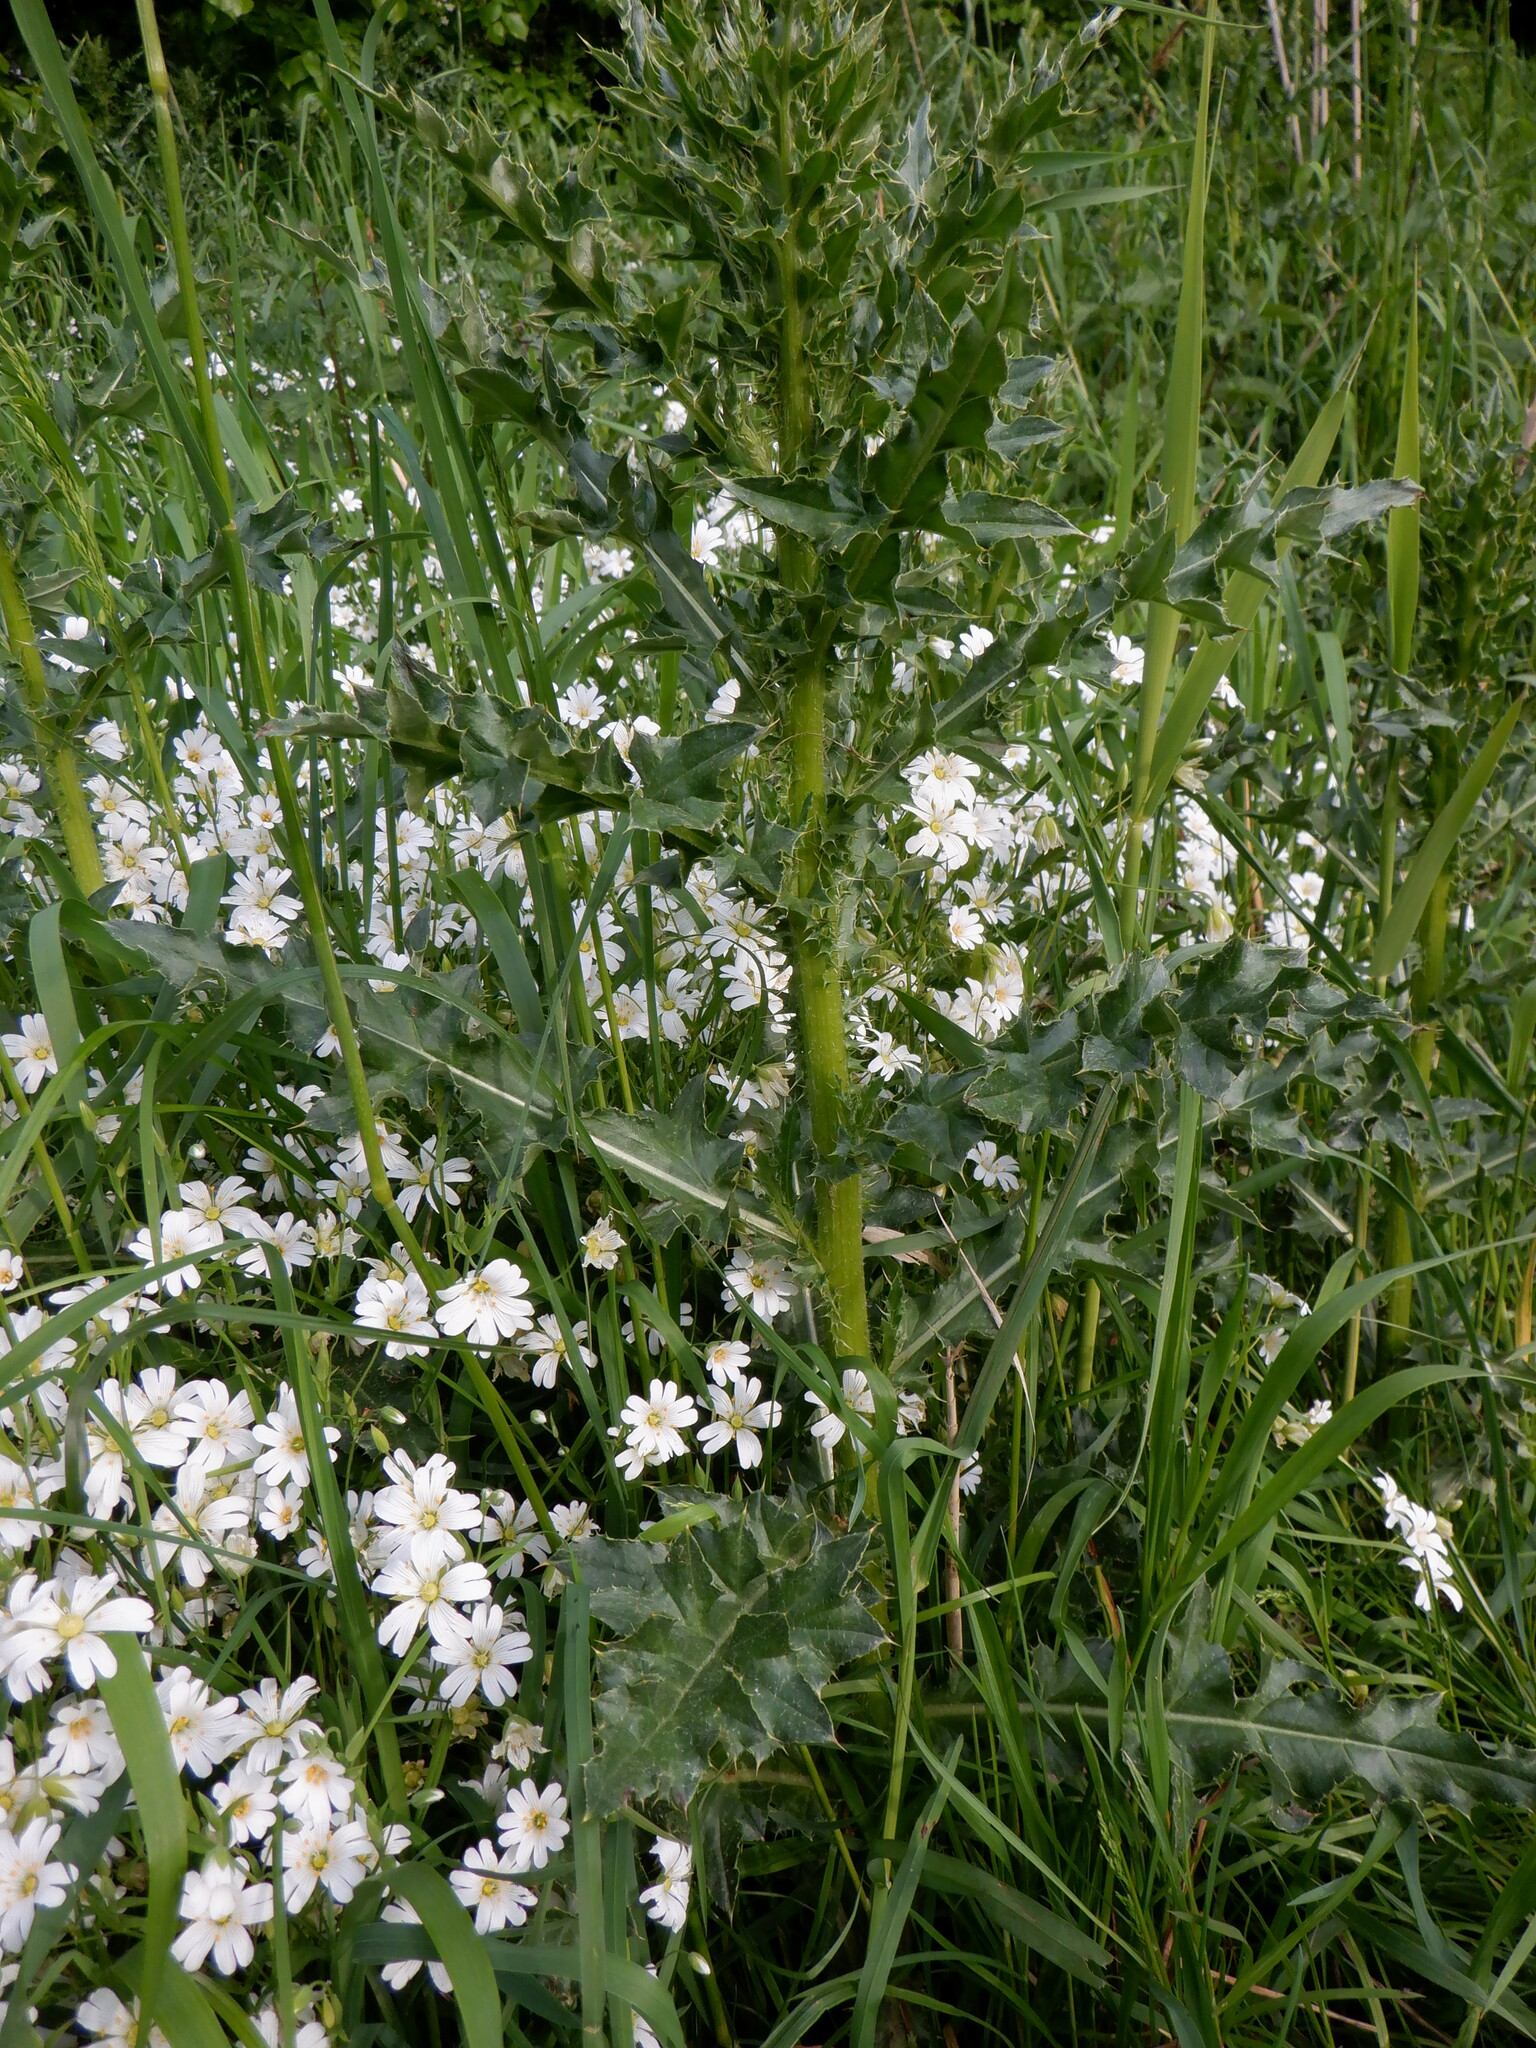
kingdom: Plantae
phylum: Tracheophyta
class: Magnoliopsida
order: Caryophyllales
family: Caryophyllaceae
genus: Rabelera
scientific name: Rabelera holostea
